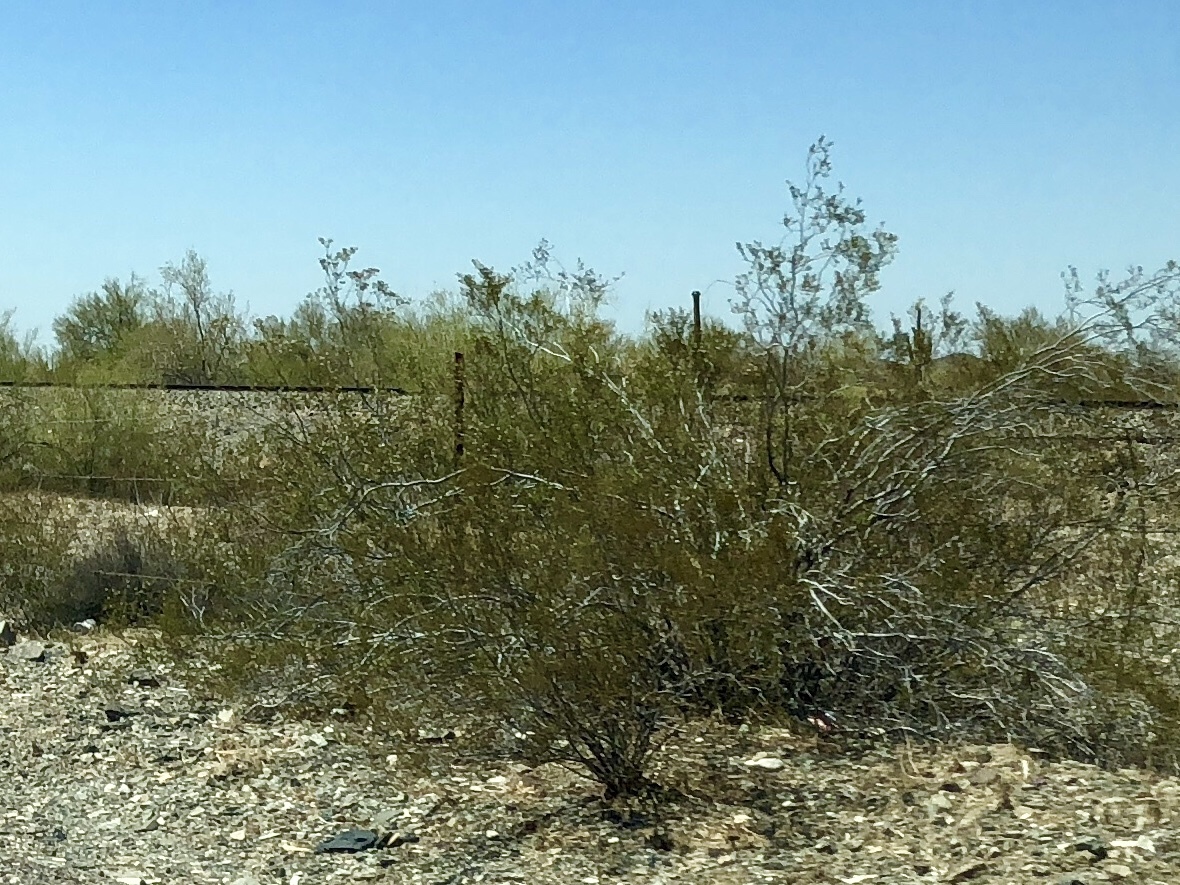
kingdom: Plantae
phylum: Tracheophyta
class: Magnoliopsida
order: Zygophyllales
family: Zygophyllaceae
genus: Larrea
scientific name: Larrea tridentata
